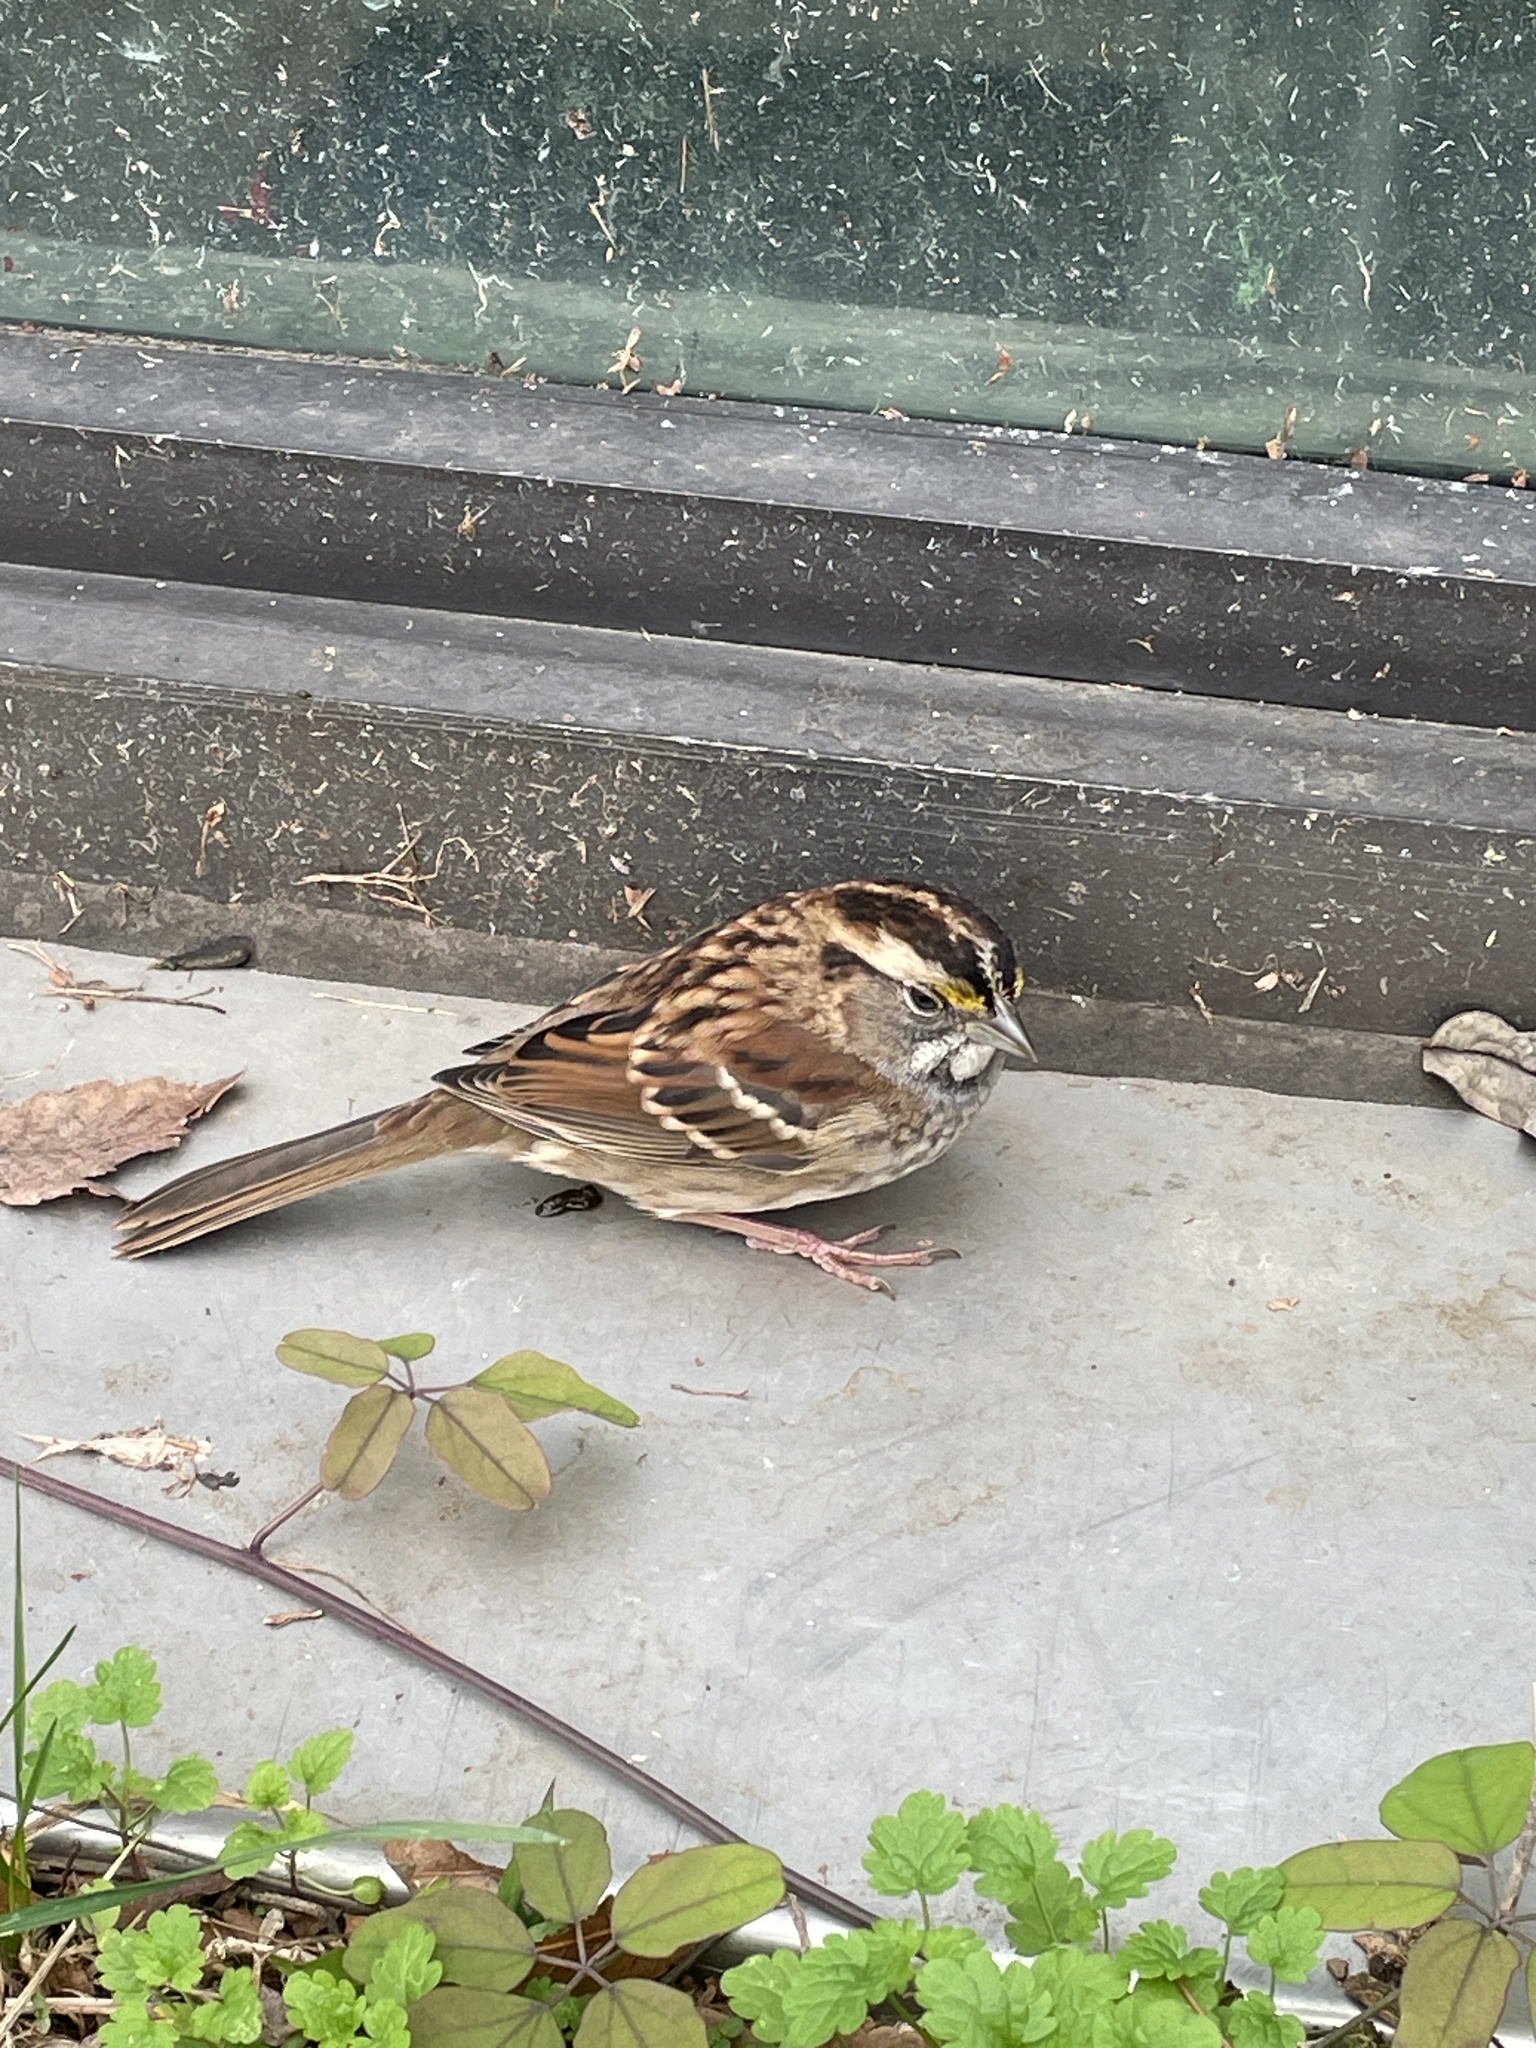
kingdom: Animalia
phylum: Chordata
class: Aves
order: Passeriformes
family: Passerellidae
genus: Zonotrichia
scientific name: Zonotrichia albicollis
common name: White-throated sparrow
